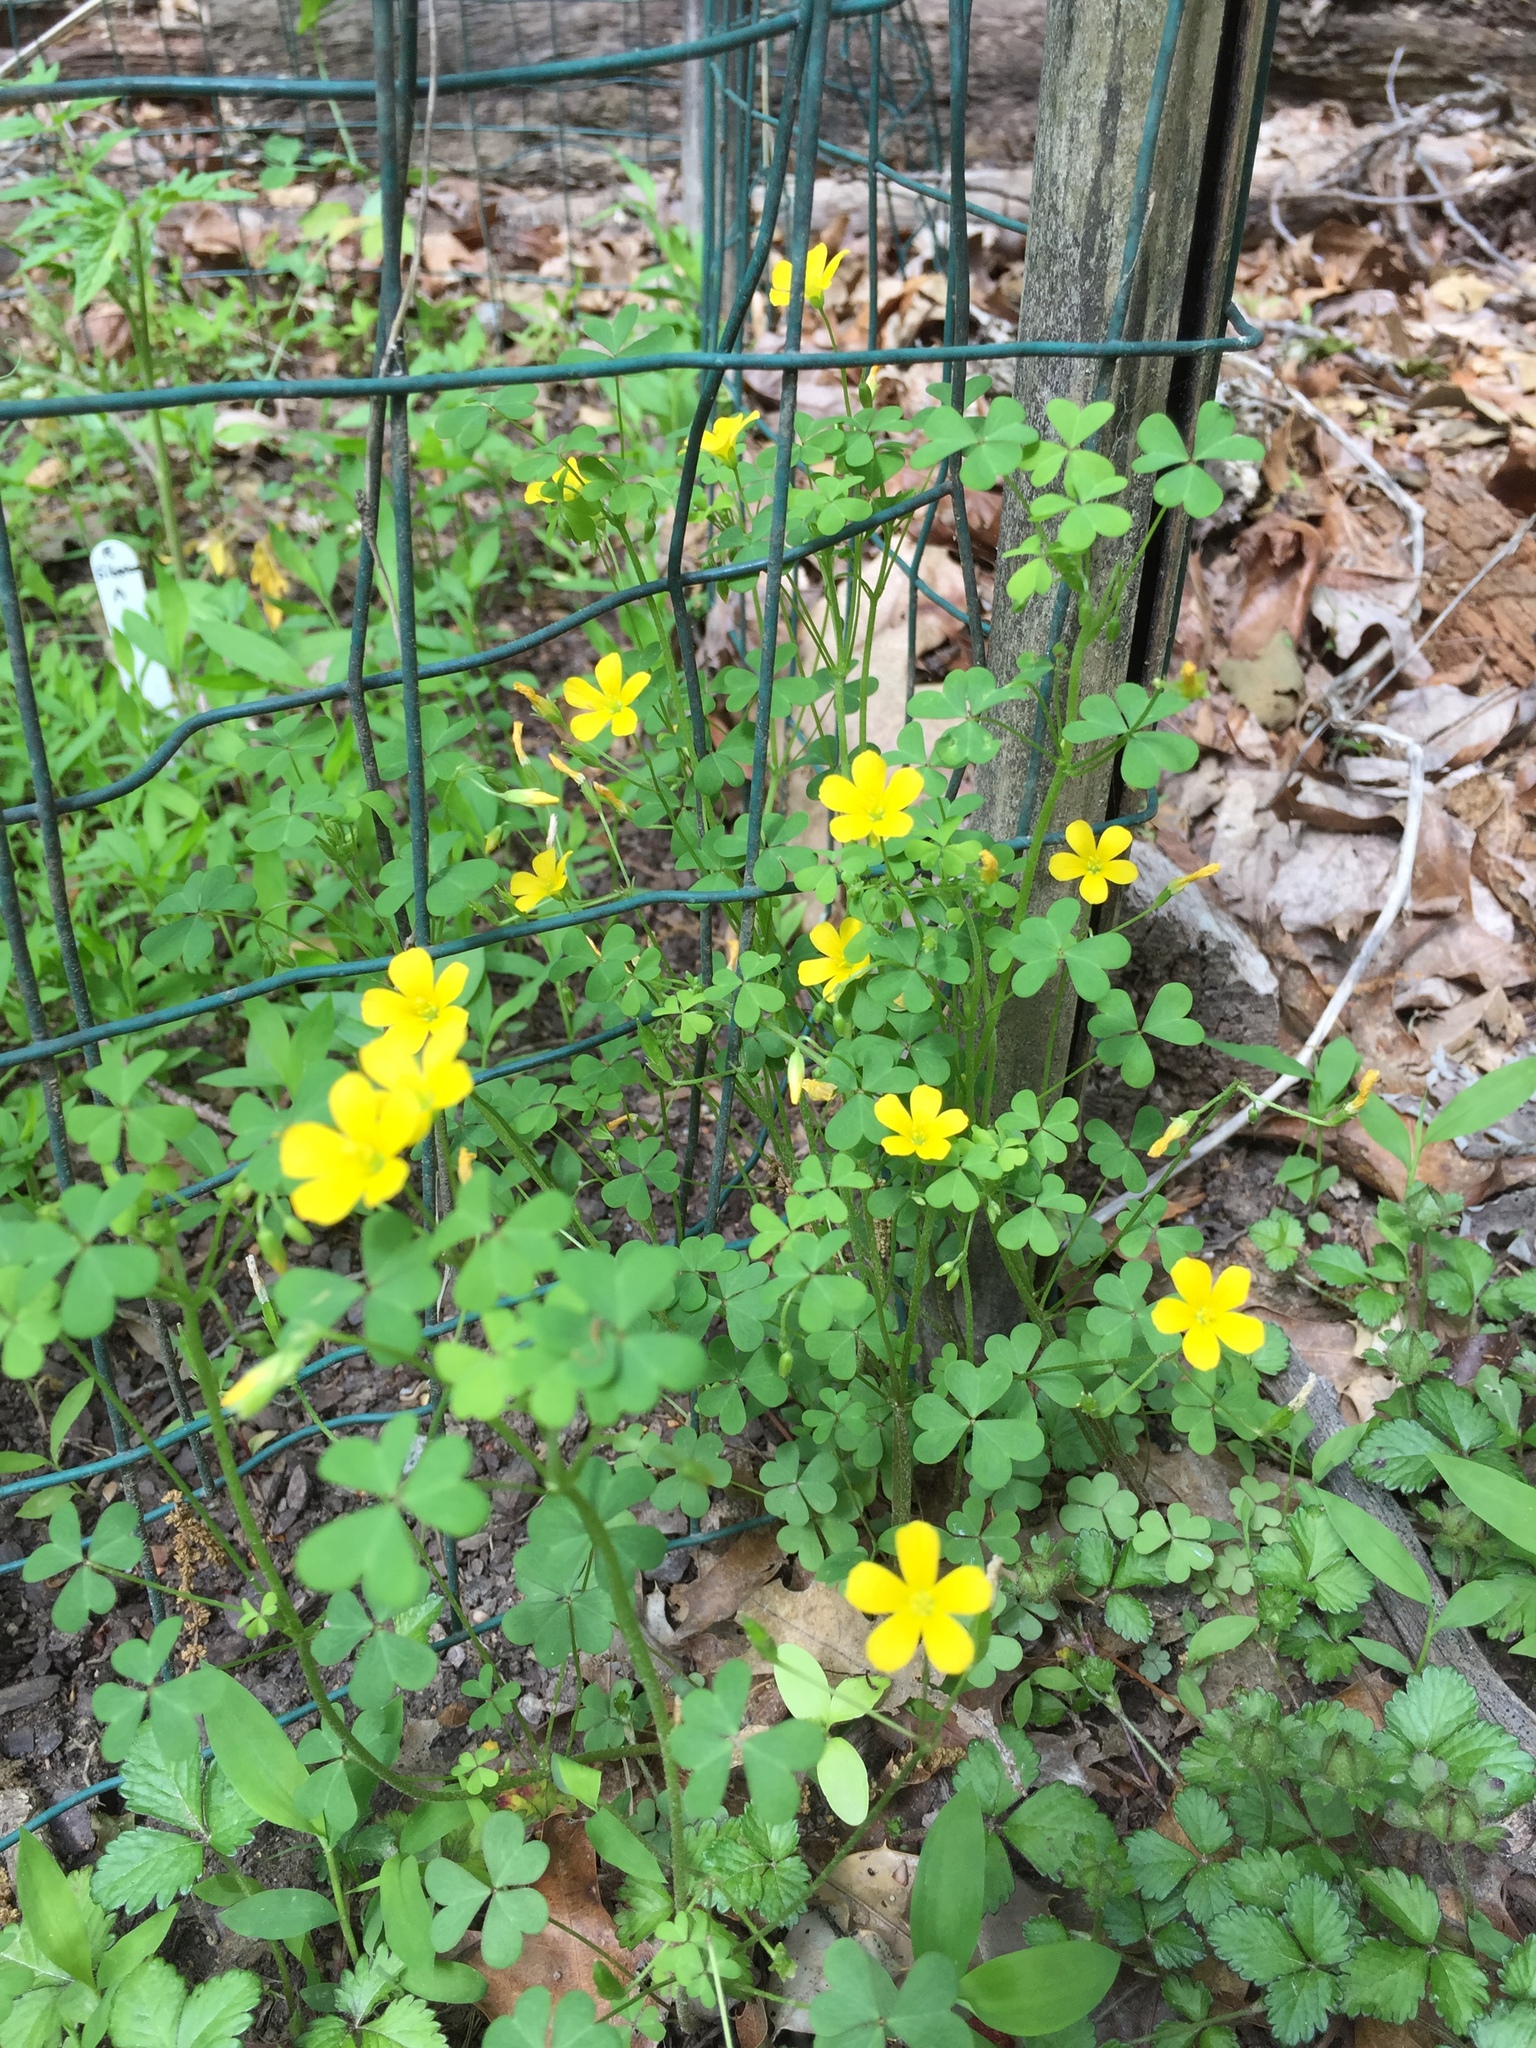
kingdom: Plantae
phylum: Tracheophyta
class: Magnoliopsida
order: Oxalidales
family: Oxalidaceae
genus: Oxalis
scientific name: Oxalis dillenii
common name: Sussex yellow-sorrel
